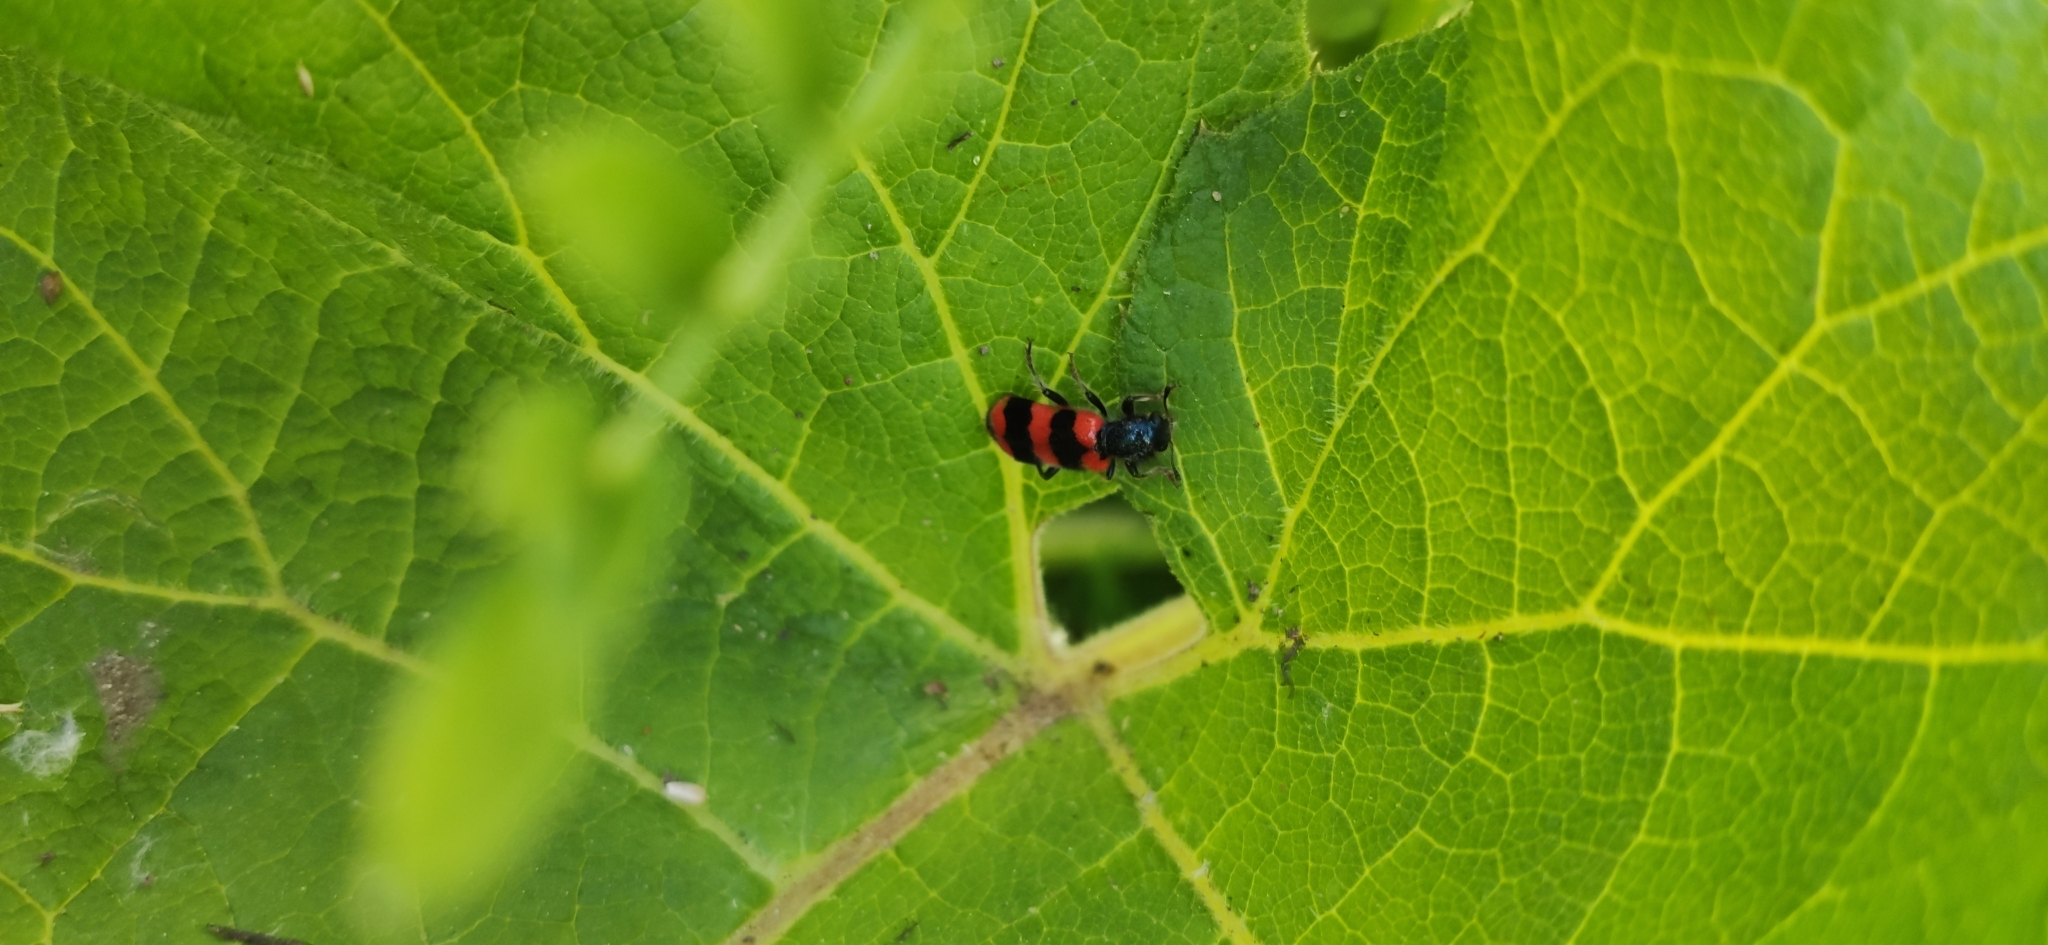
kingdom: Animalia
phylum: Arthropoda
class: Insecta
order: Coleoptera
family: Cleridae
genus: Trichodes
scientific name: Trichodes apiarius
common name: Bee-eating beetle
